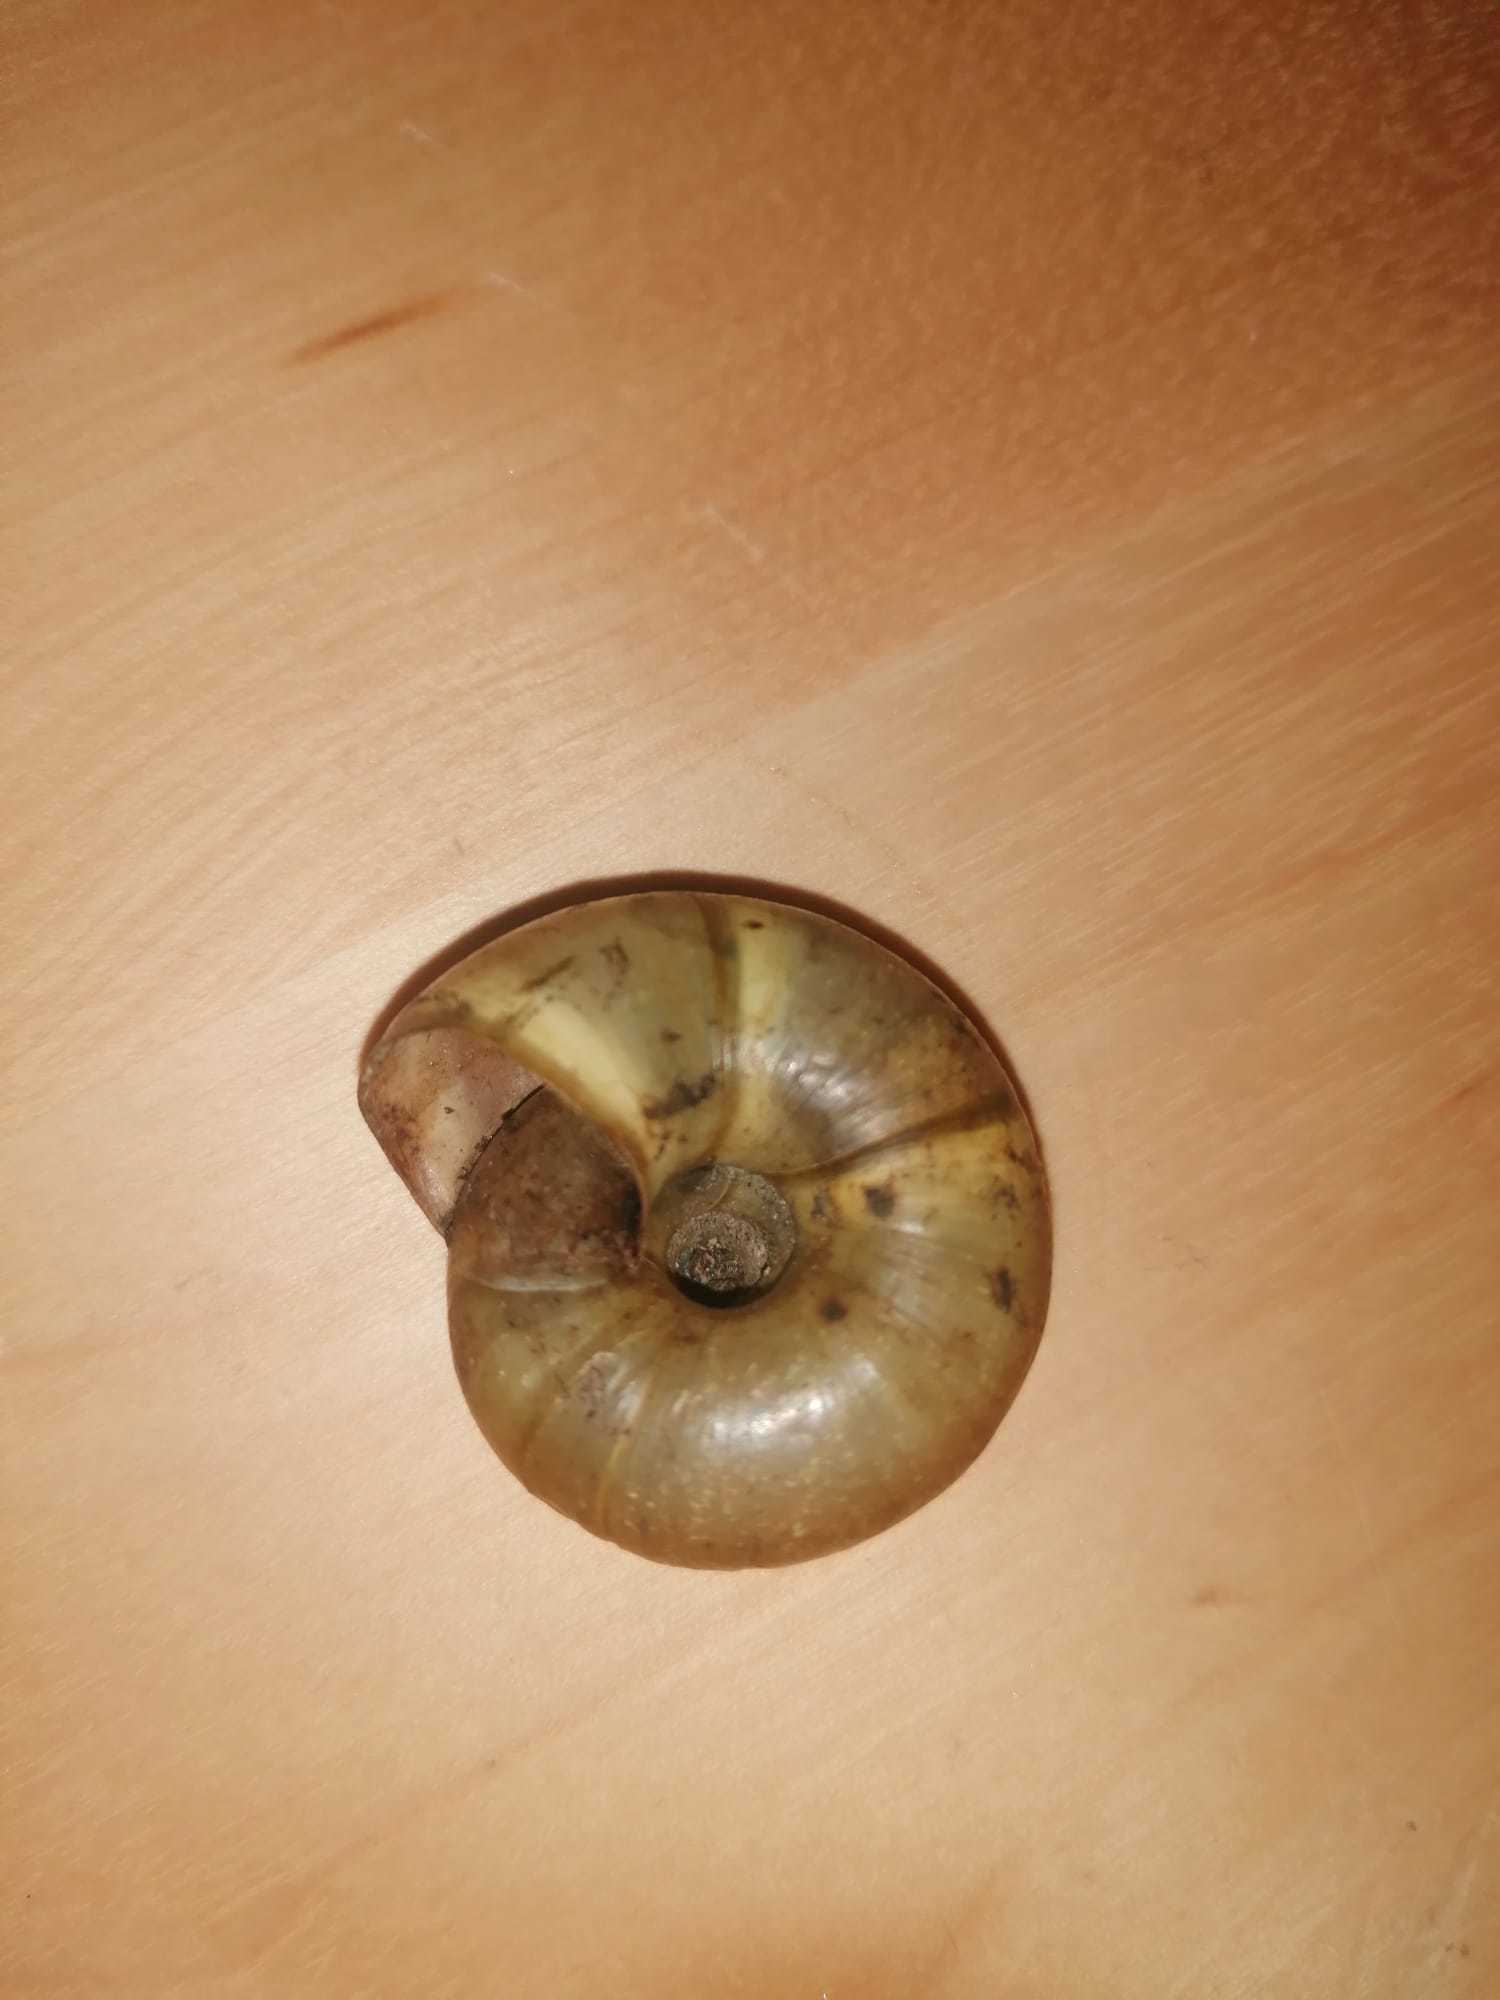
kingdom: Animalia
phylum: Mollusca
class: Gastropoda
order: Stylommatophora
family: Zonitidae
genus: Aegopis
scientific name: Aegopis verticillus
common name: Giant glass snail
